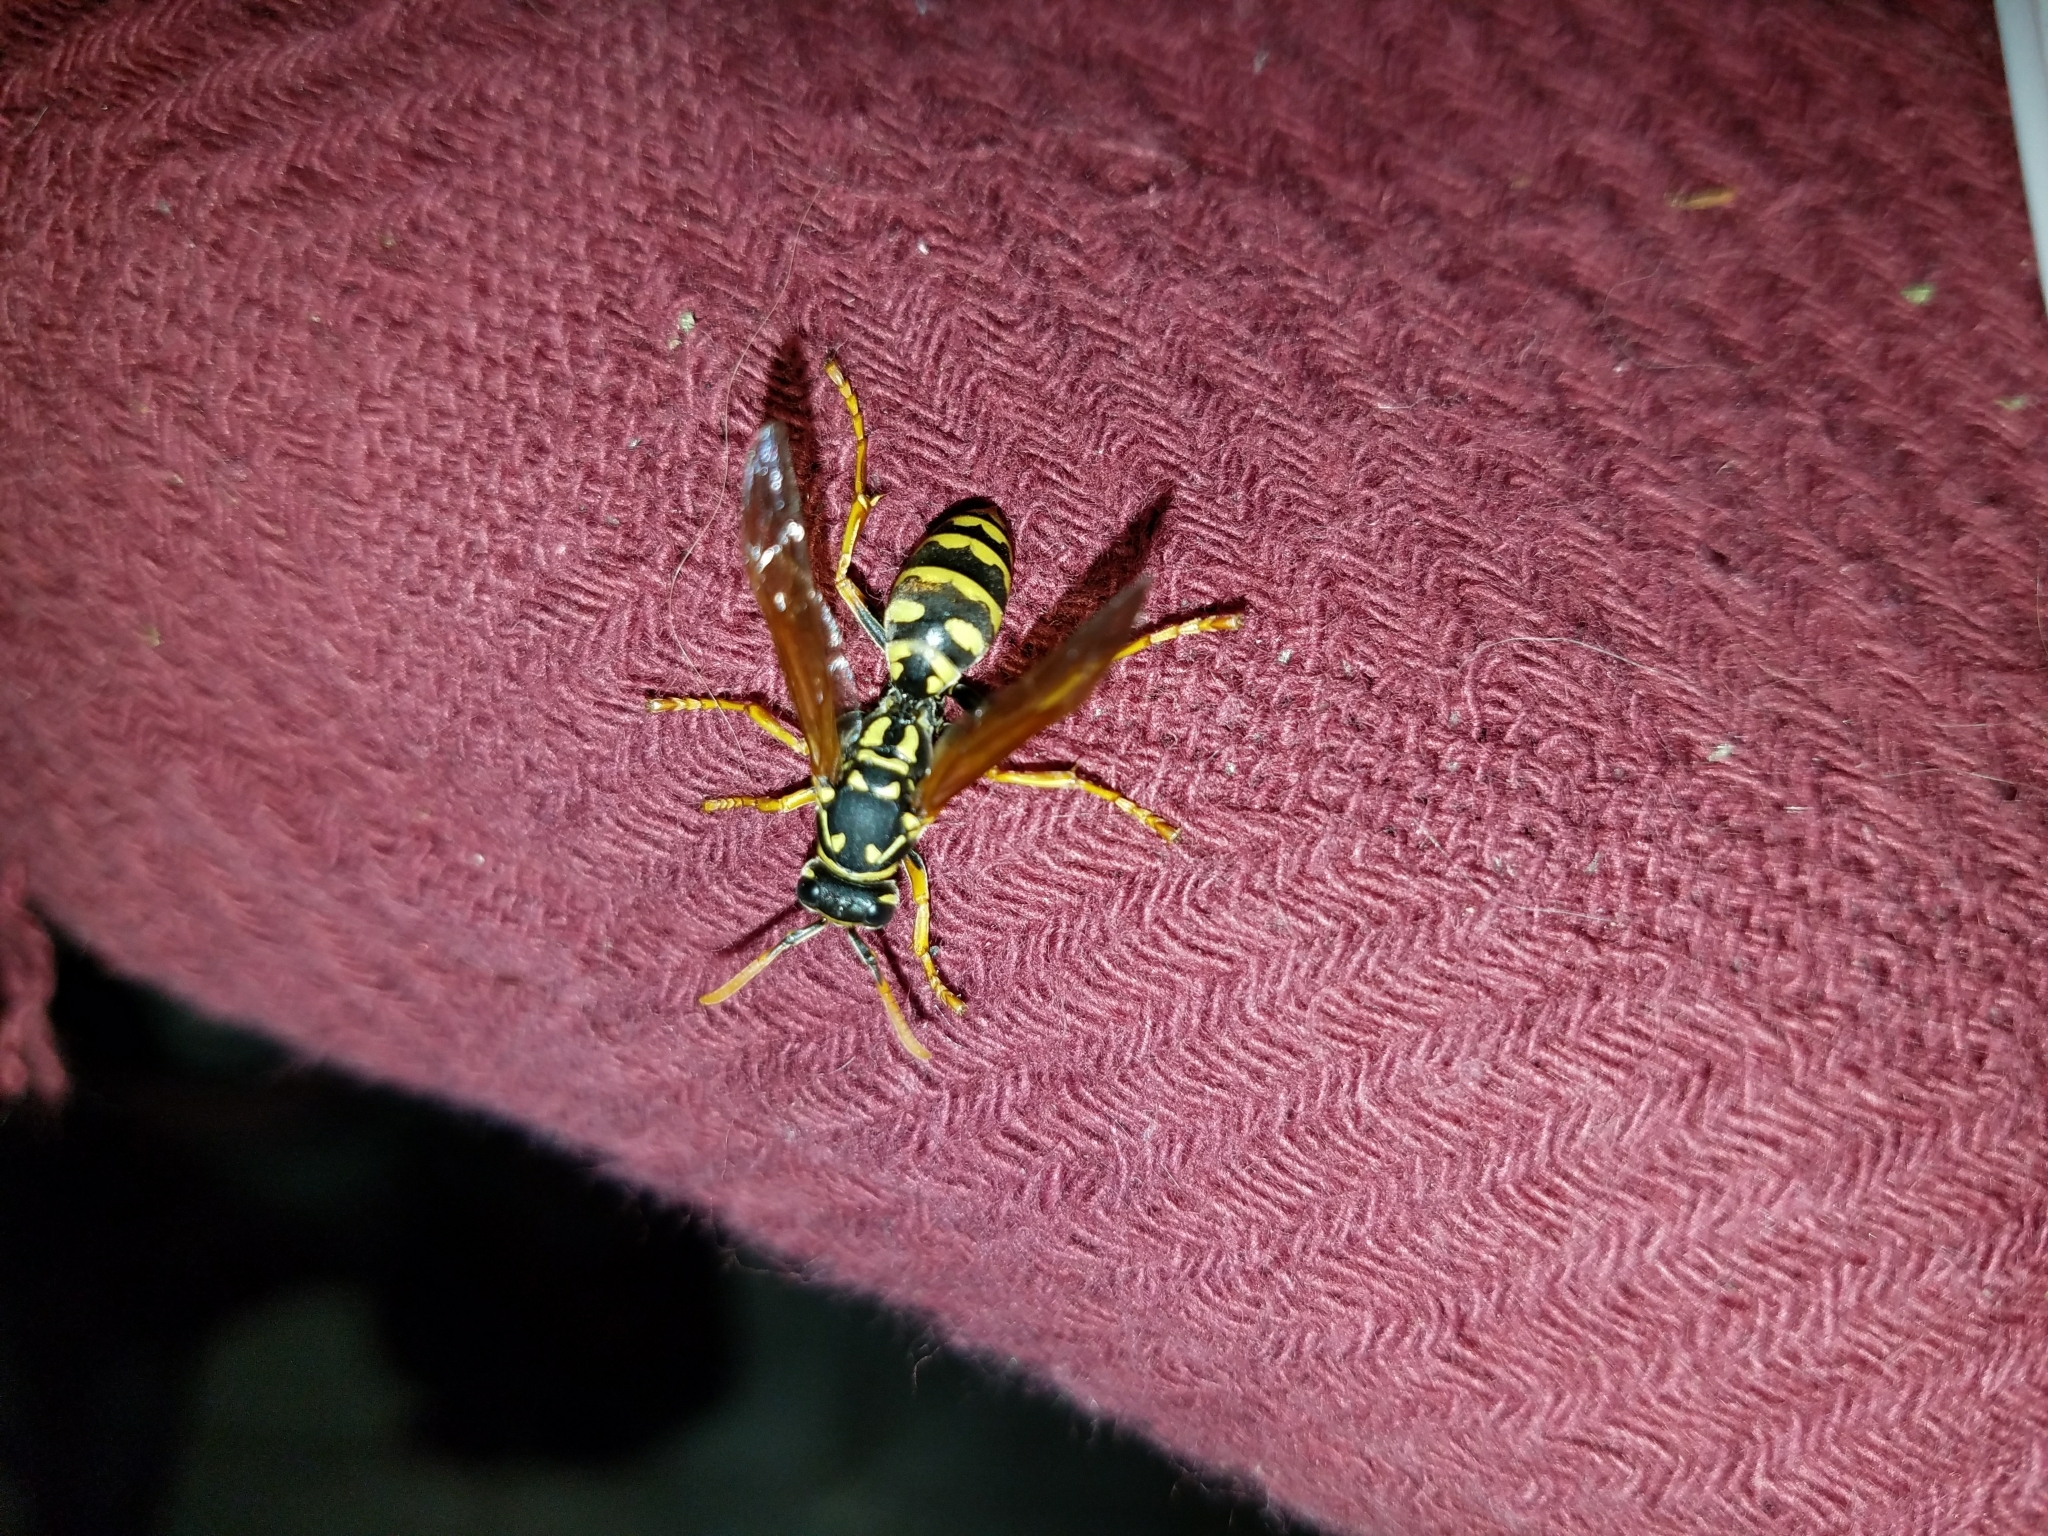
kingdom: Animalia
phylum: Arthropoda
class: Insecta
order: Hymenoptera
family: Eumenidae
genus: Polistes
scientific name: Polistes dominula
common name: Paper wasp
